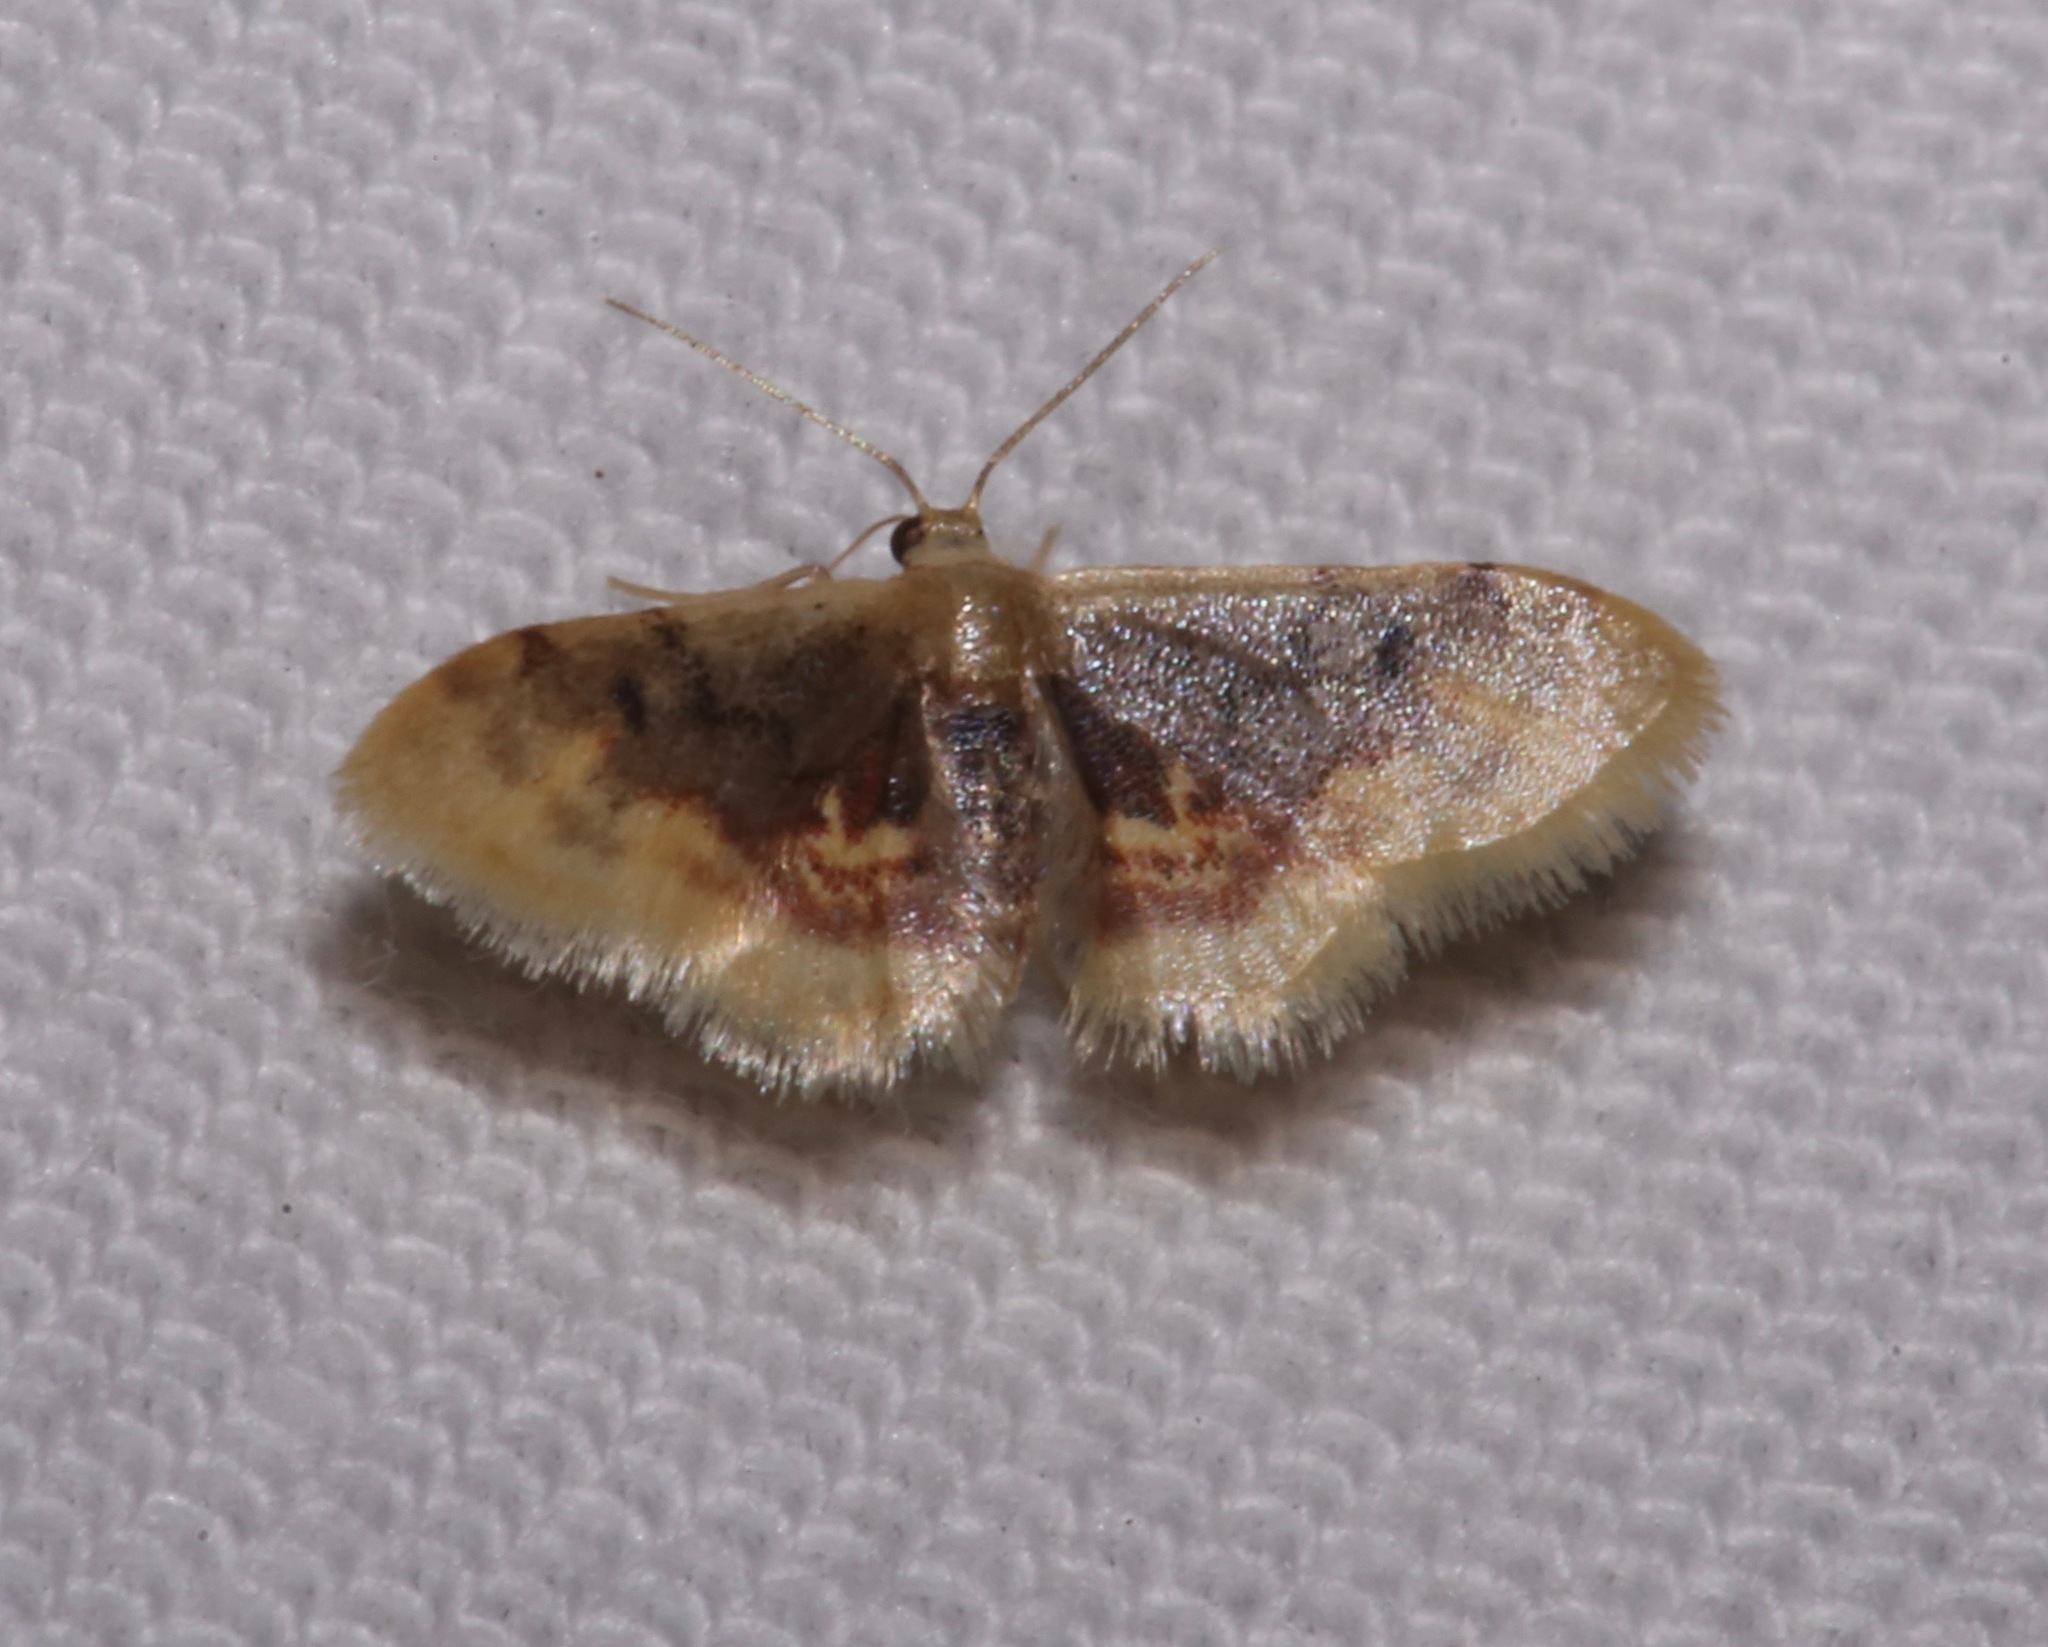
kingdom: Animalia
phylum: Arthropoda
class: Insecta
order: Lepidoptera
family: Geometridae
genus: Idaea
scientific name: Idaea scintillularia
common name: Diminutive wave
